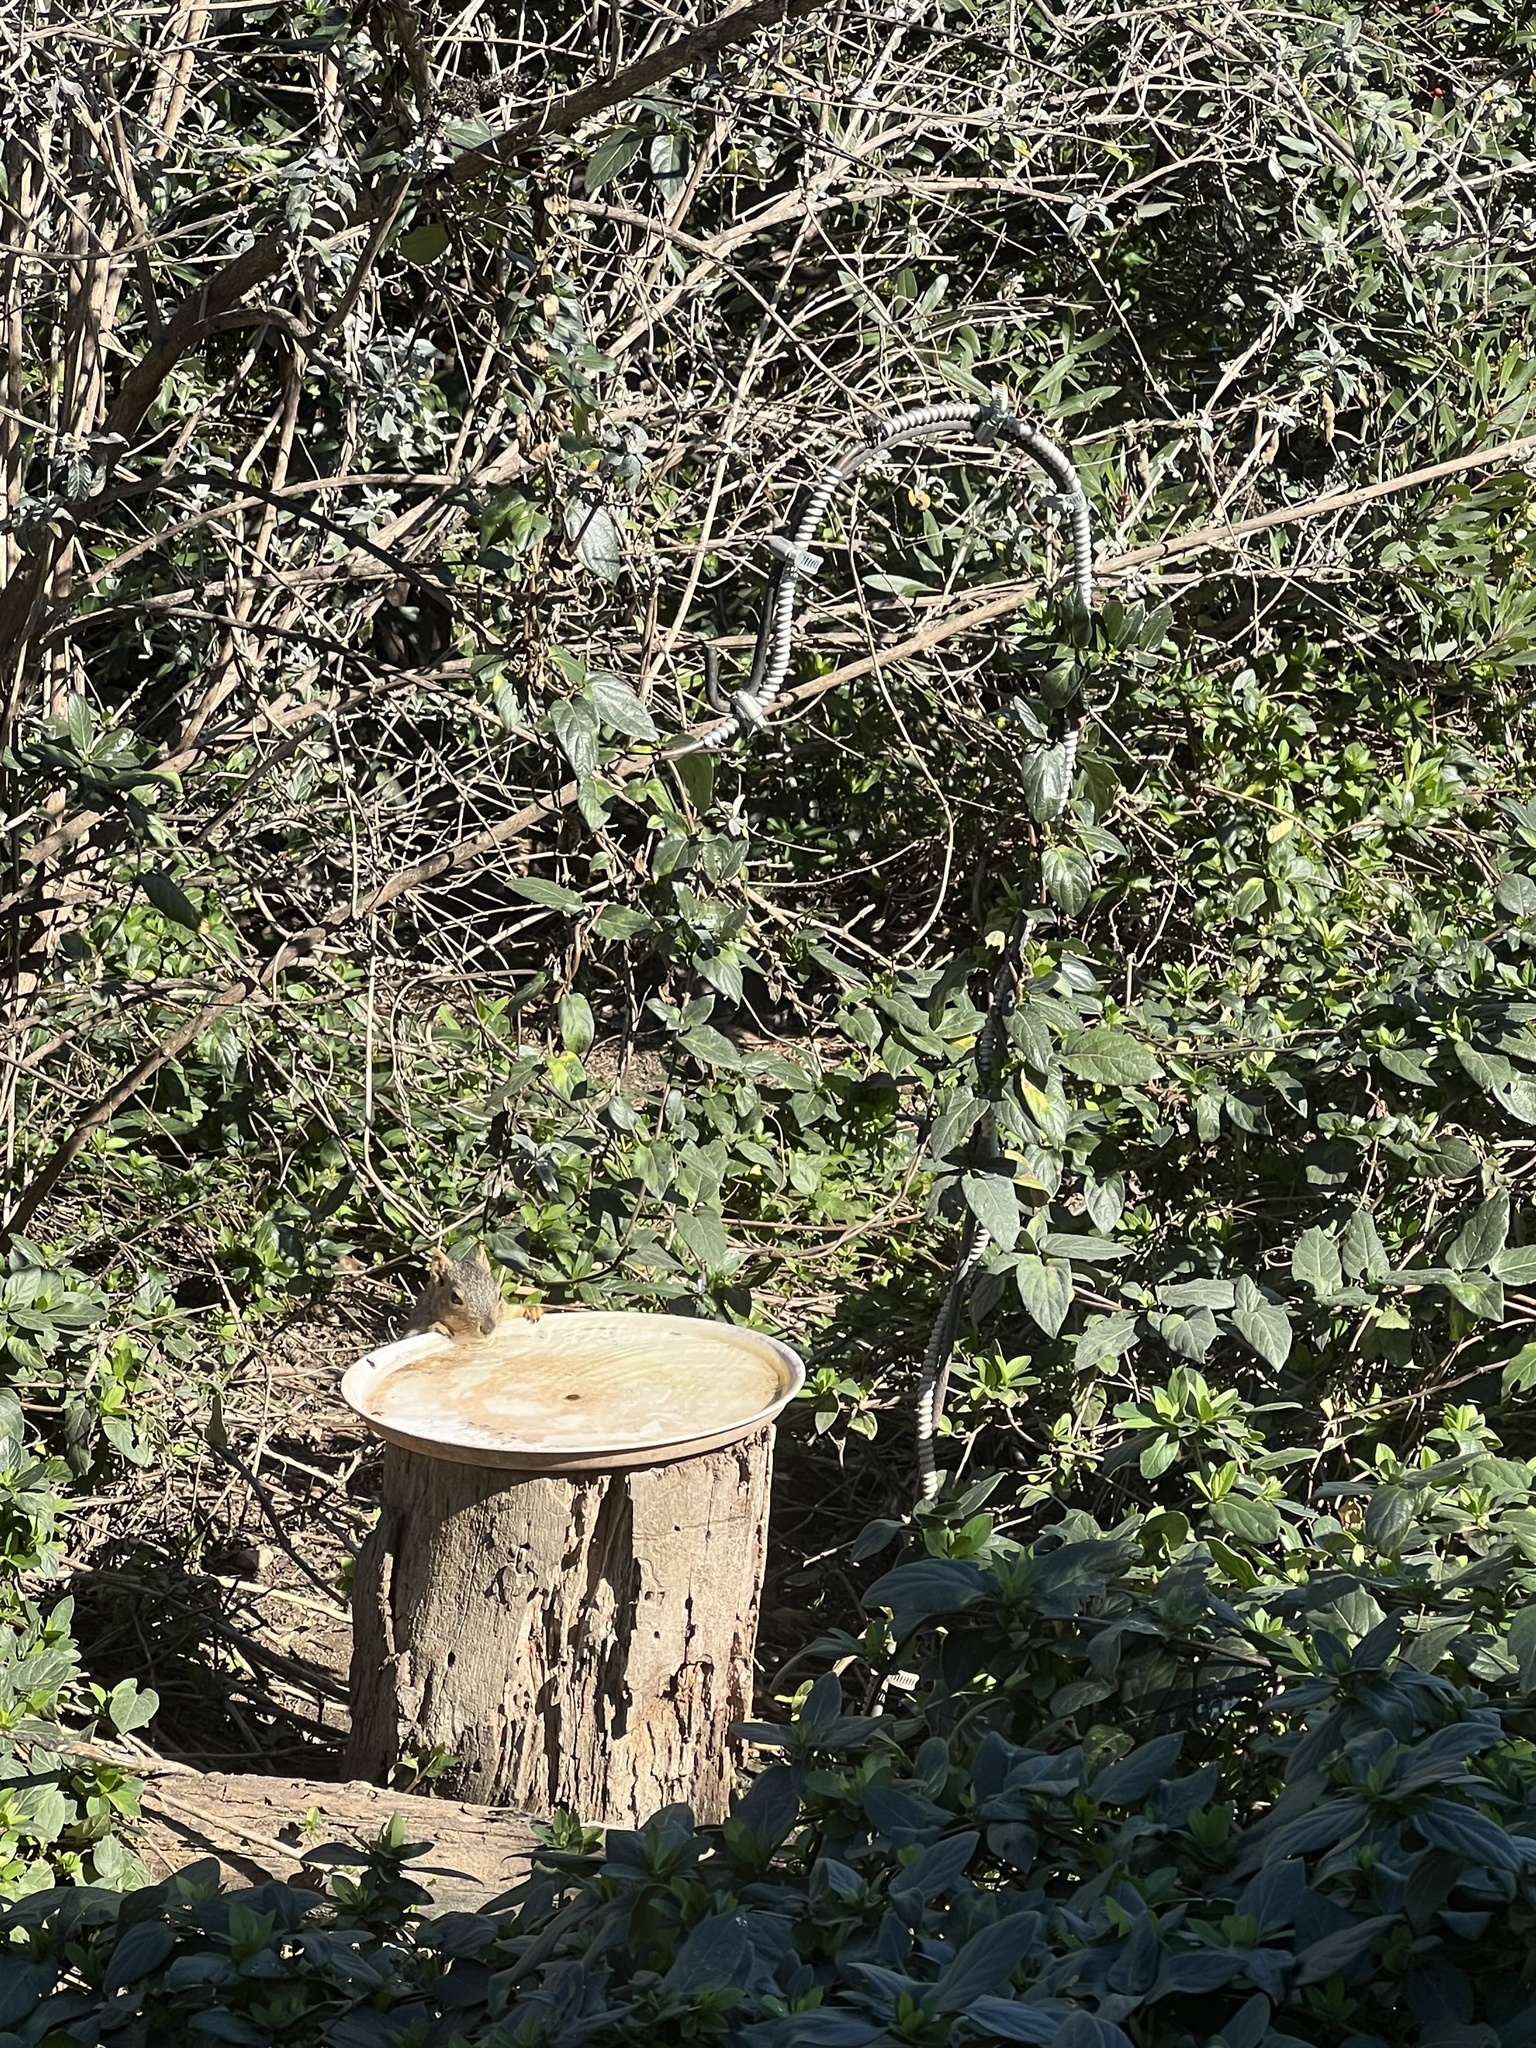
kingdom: Animalia
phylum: Chordata
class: Mammalia
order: Rodentia
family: Sciuridae
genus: Sciurus
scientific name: Sciurus niger
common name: Fox squirrel
